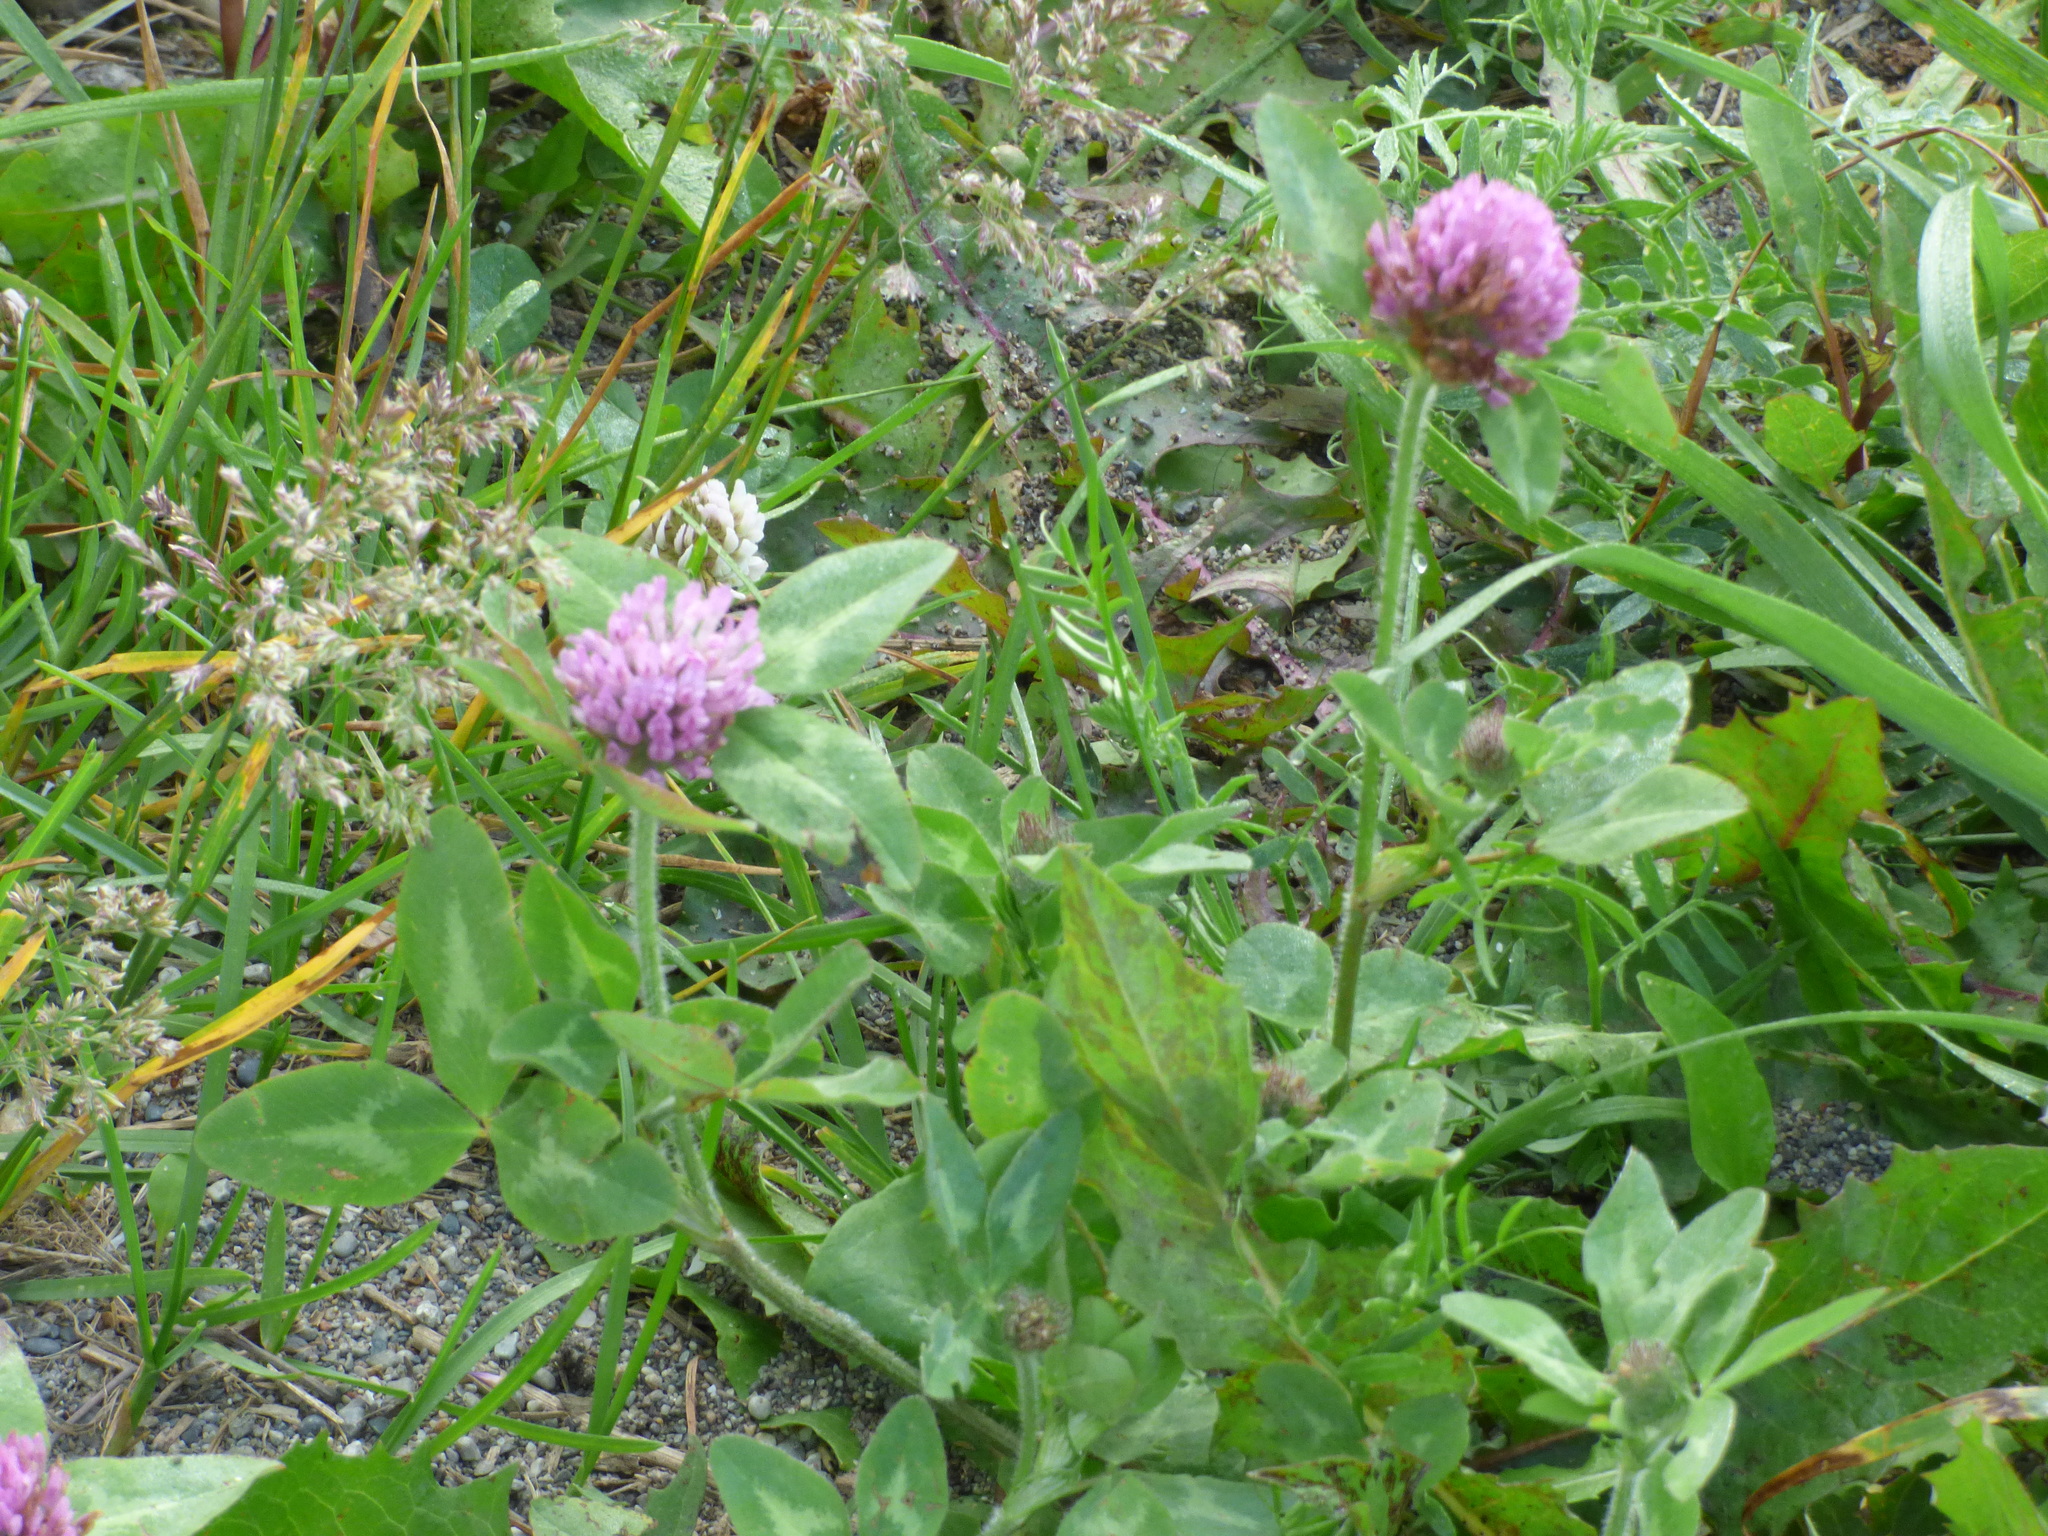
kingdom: Plantae
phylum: Tracheophyta
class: Magnoliopsida
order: Fabales
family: Fabaceae
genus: Trifolium
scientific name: Trifolium pratense
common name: Red clover
